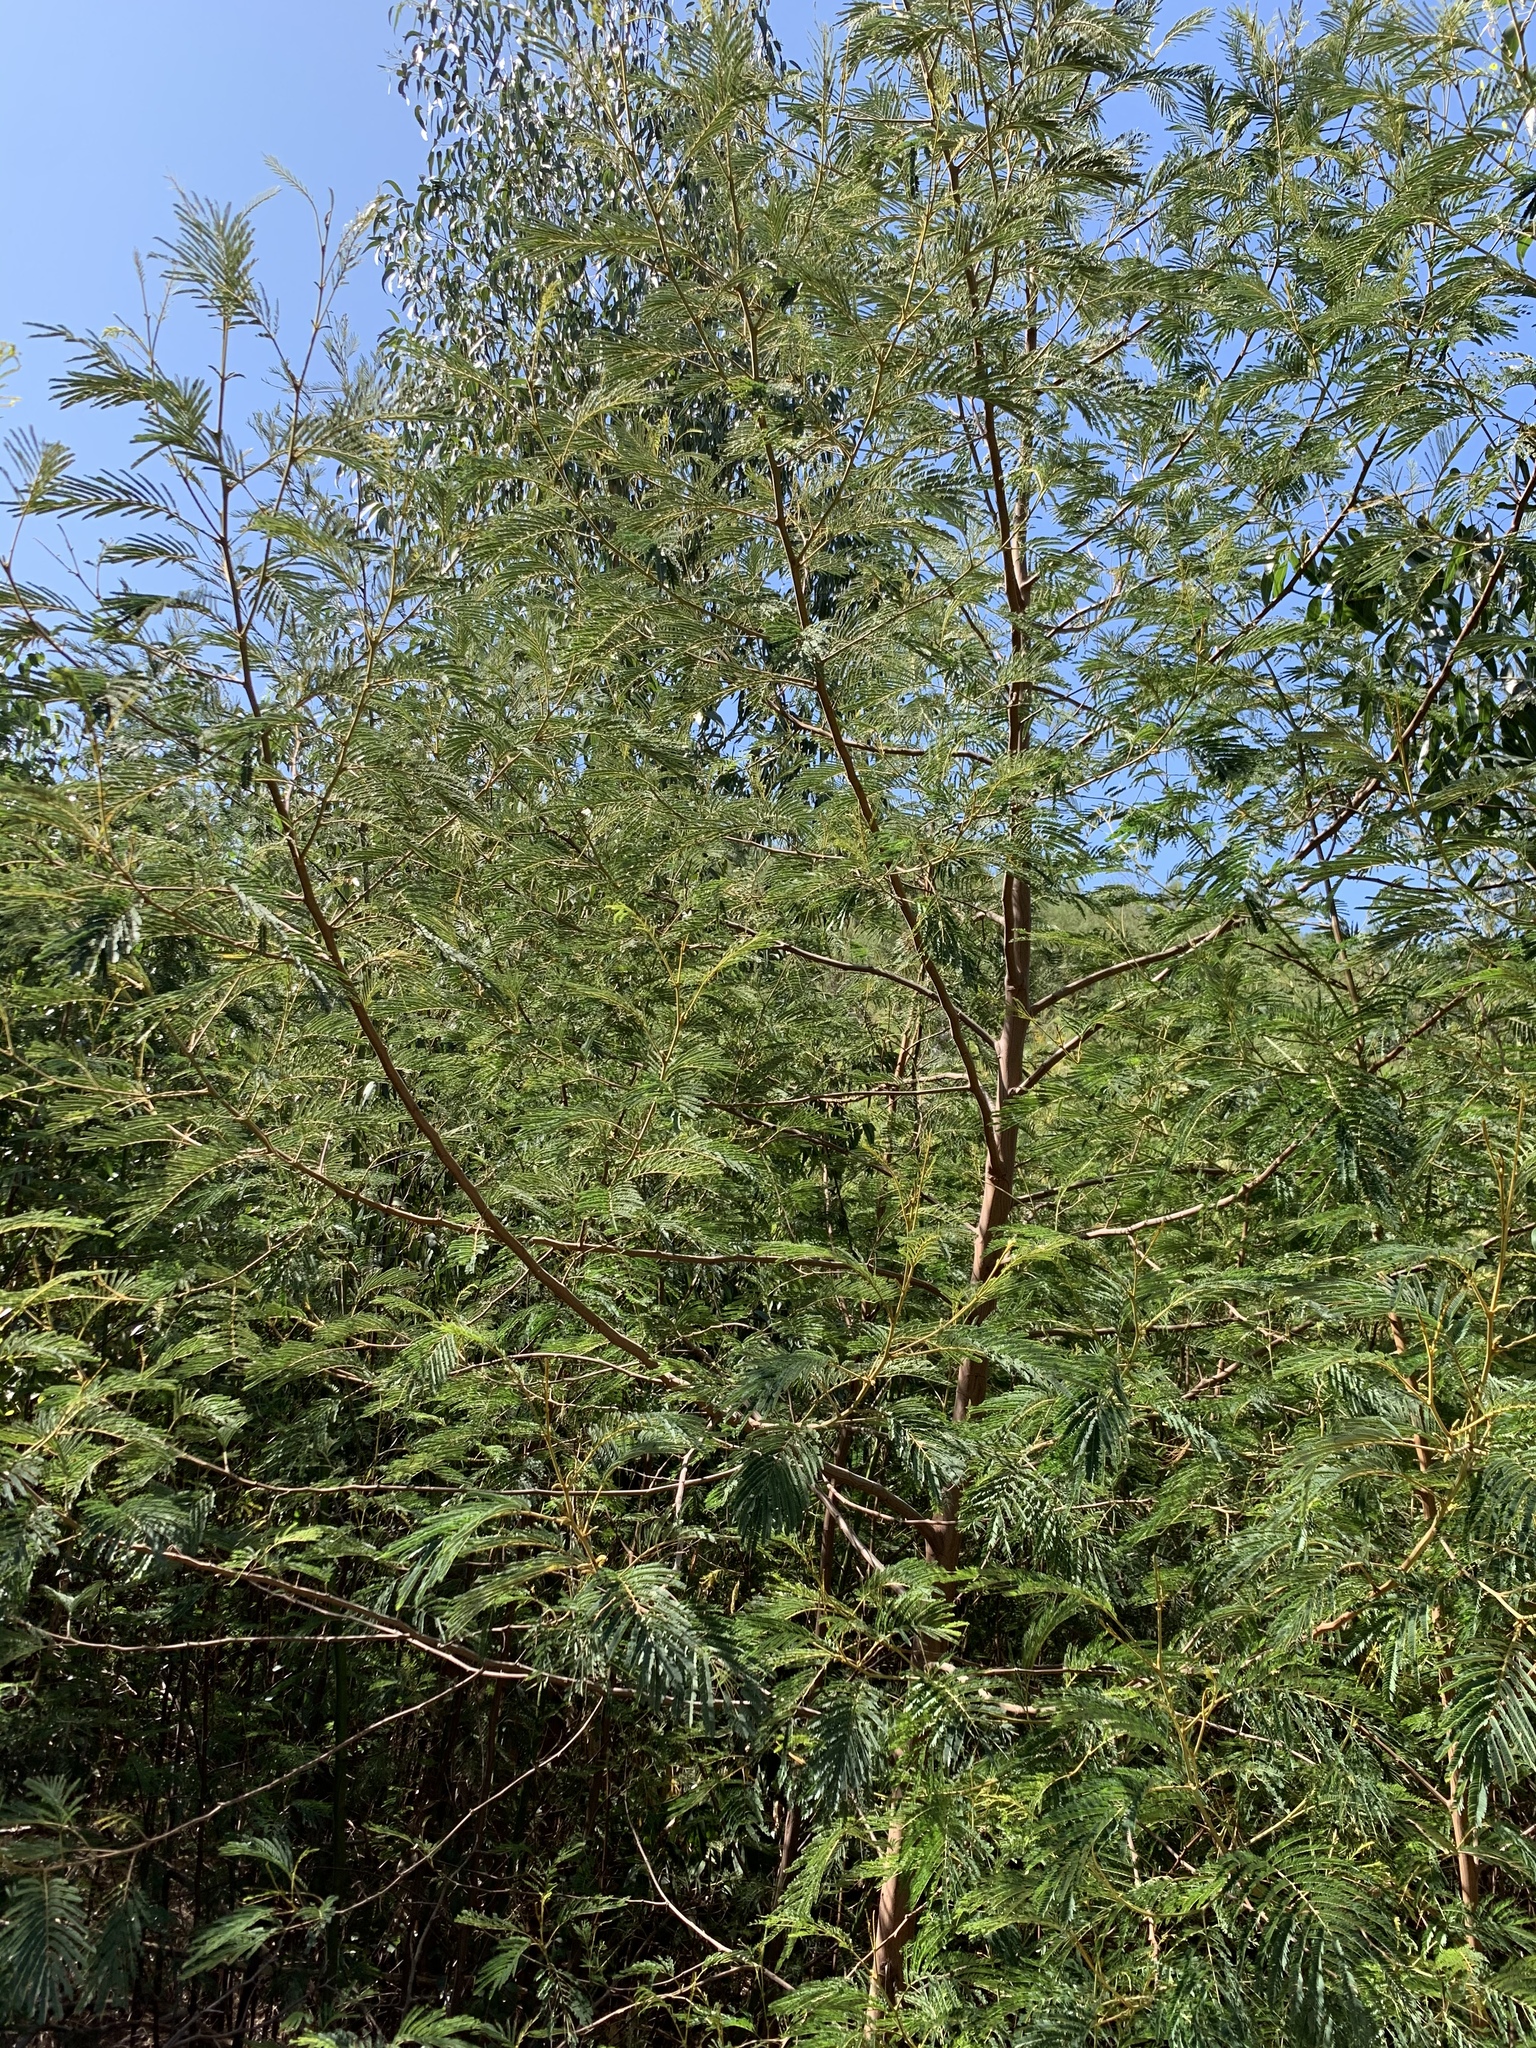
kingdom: Plantae
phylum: Tracheophyta
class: Magnoliopsida
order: Fabales
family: Fabaceae
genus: Paraserianthes
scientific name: Paraserianthes lophantha
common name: Plume albizia
